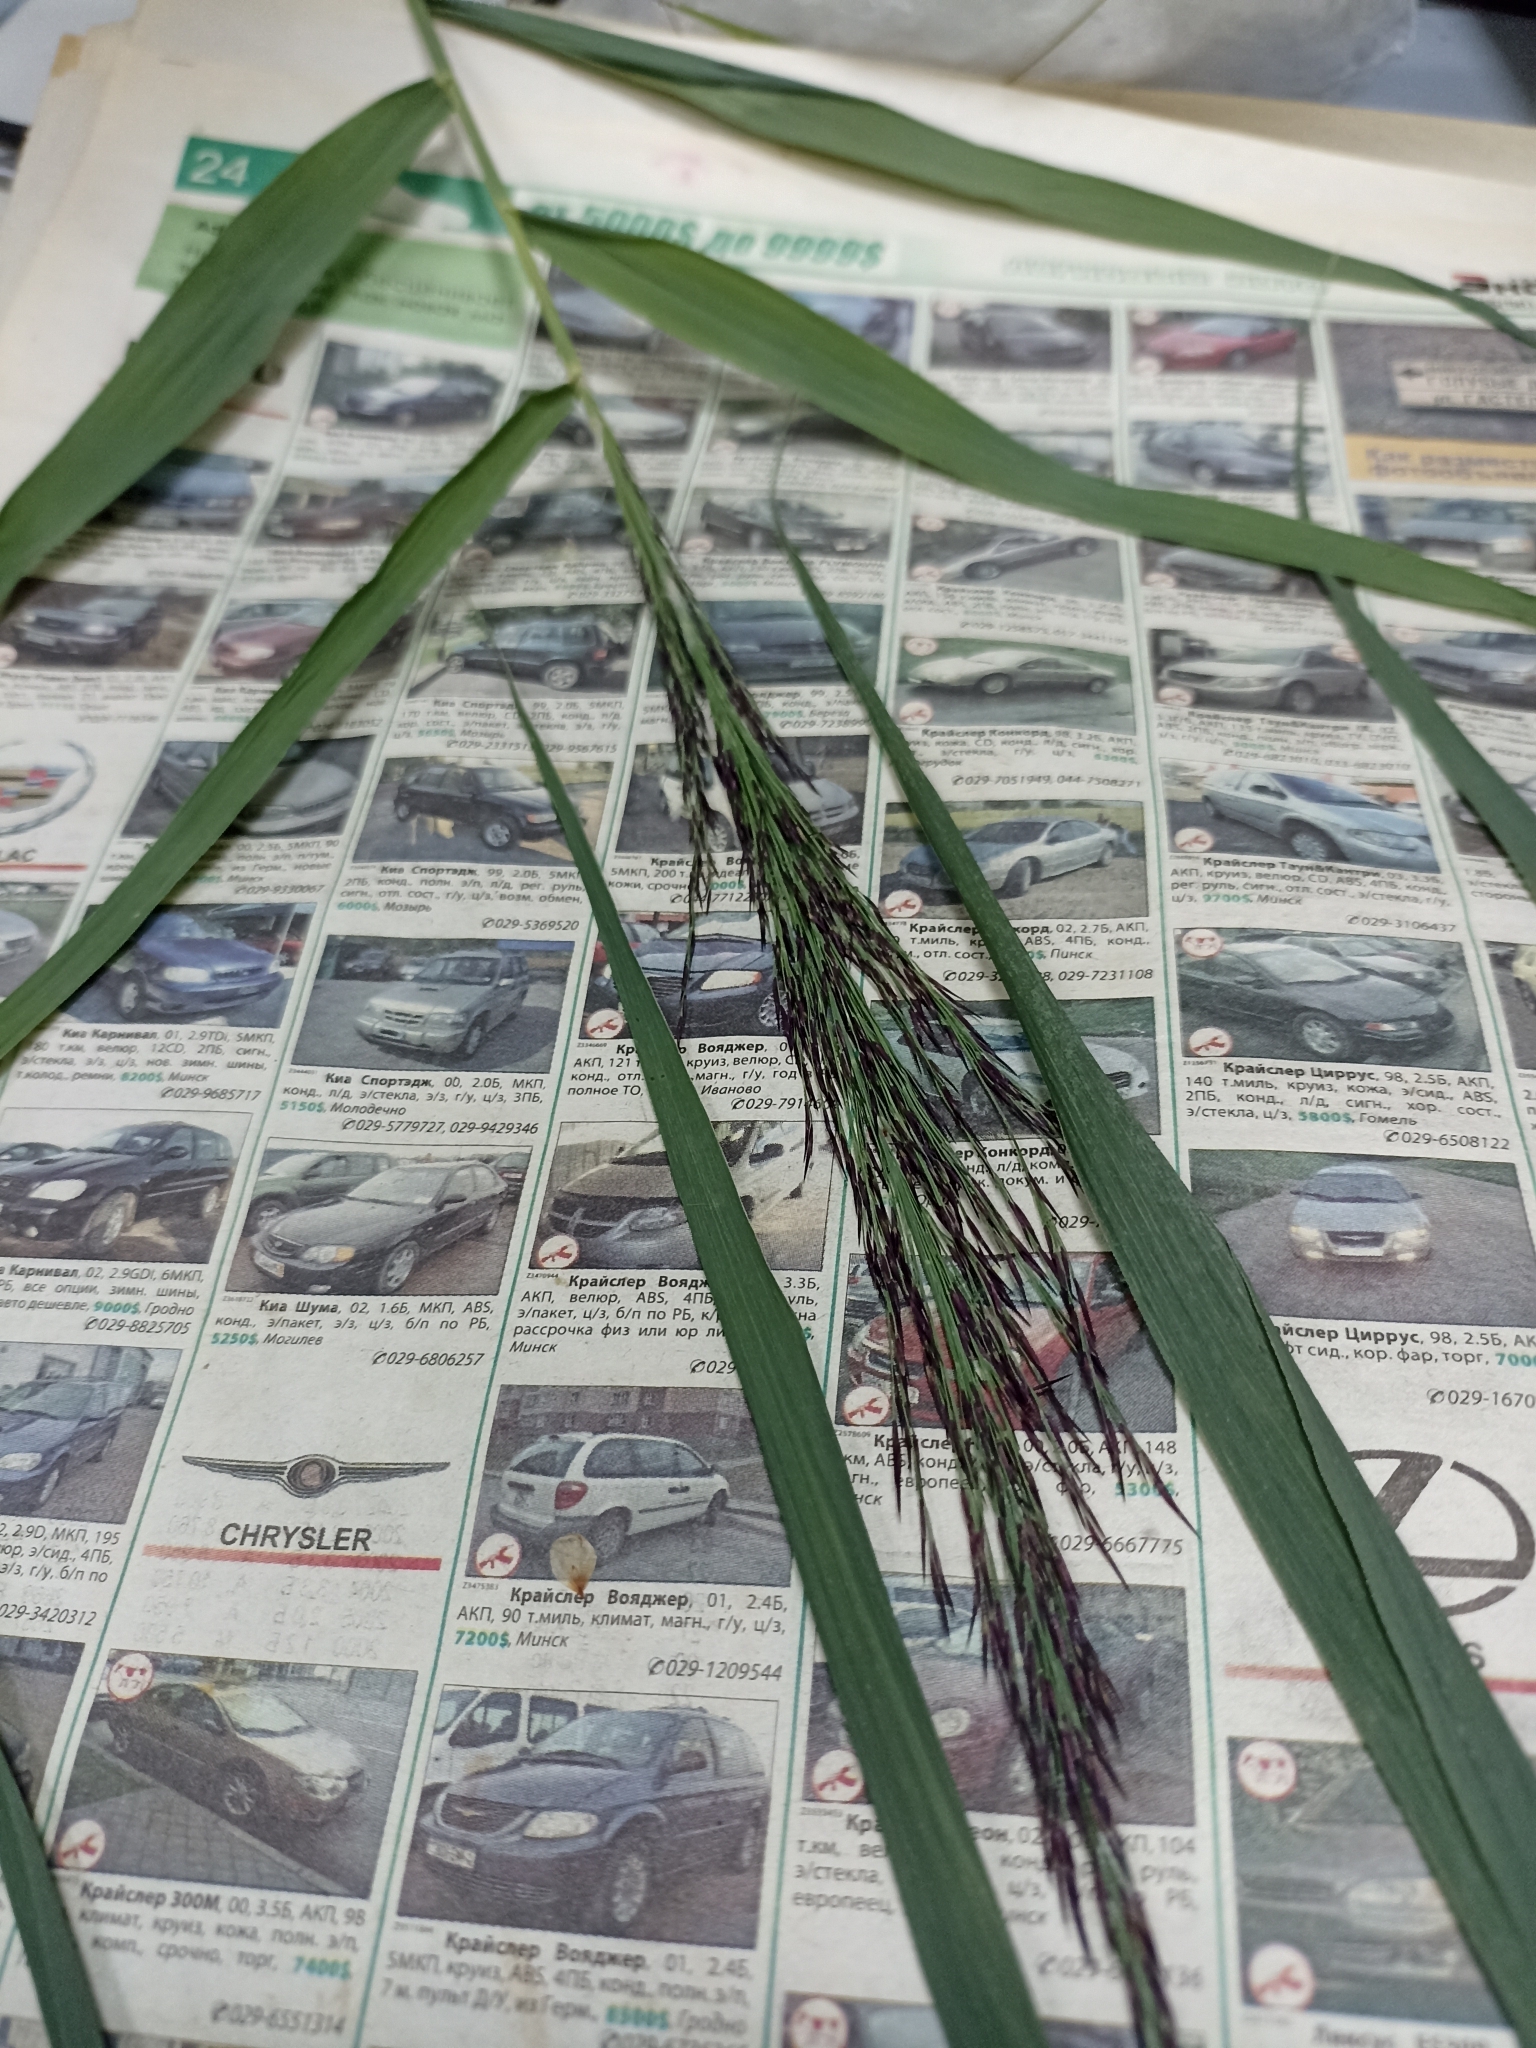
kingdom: Plantae
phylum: Tracheophyta
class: Liliopsida
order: Poales
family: Poaceae
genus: Phragmites
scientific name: Phragmites australis
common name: Common reed
